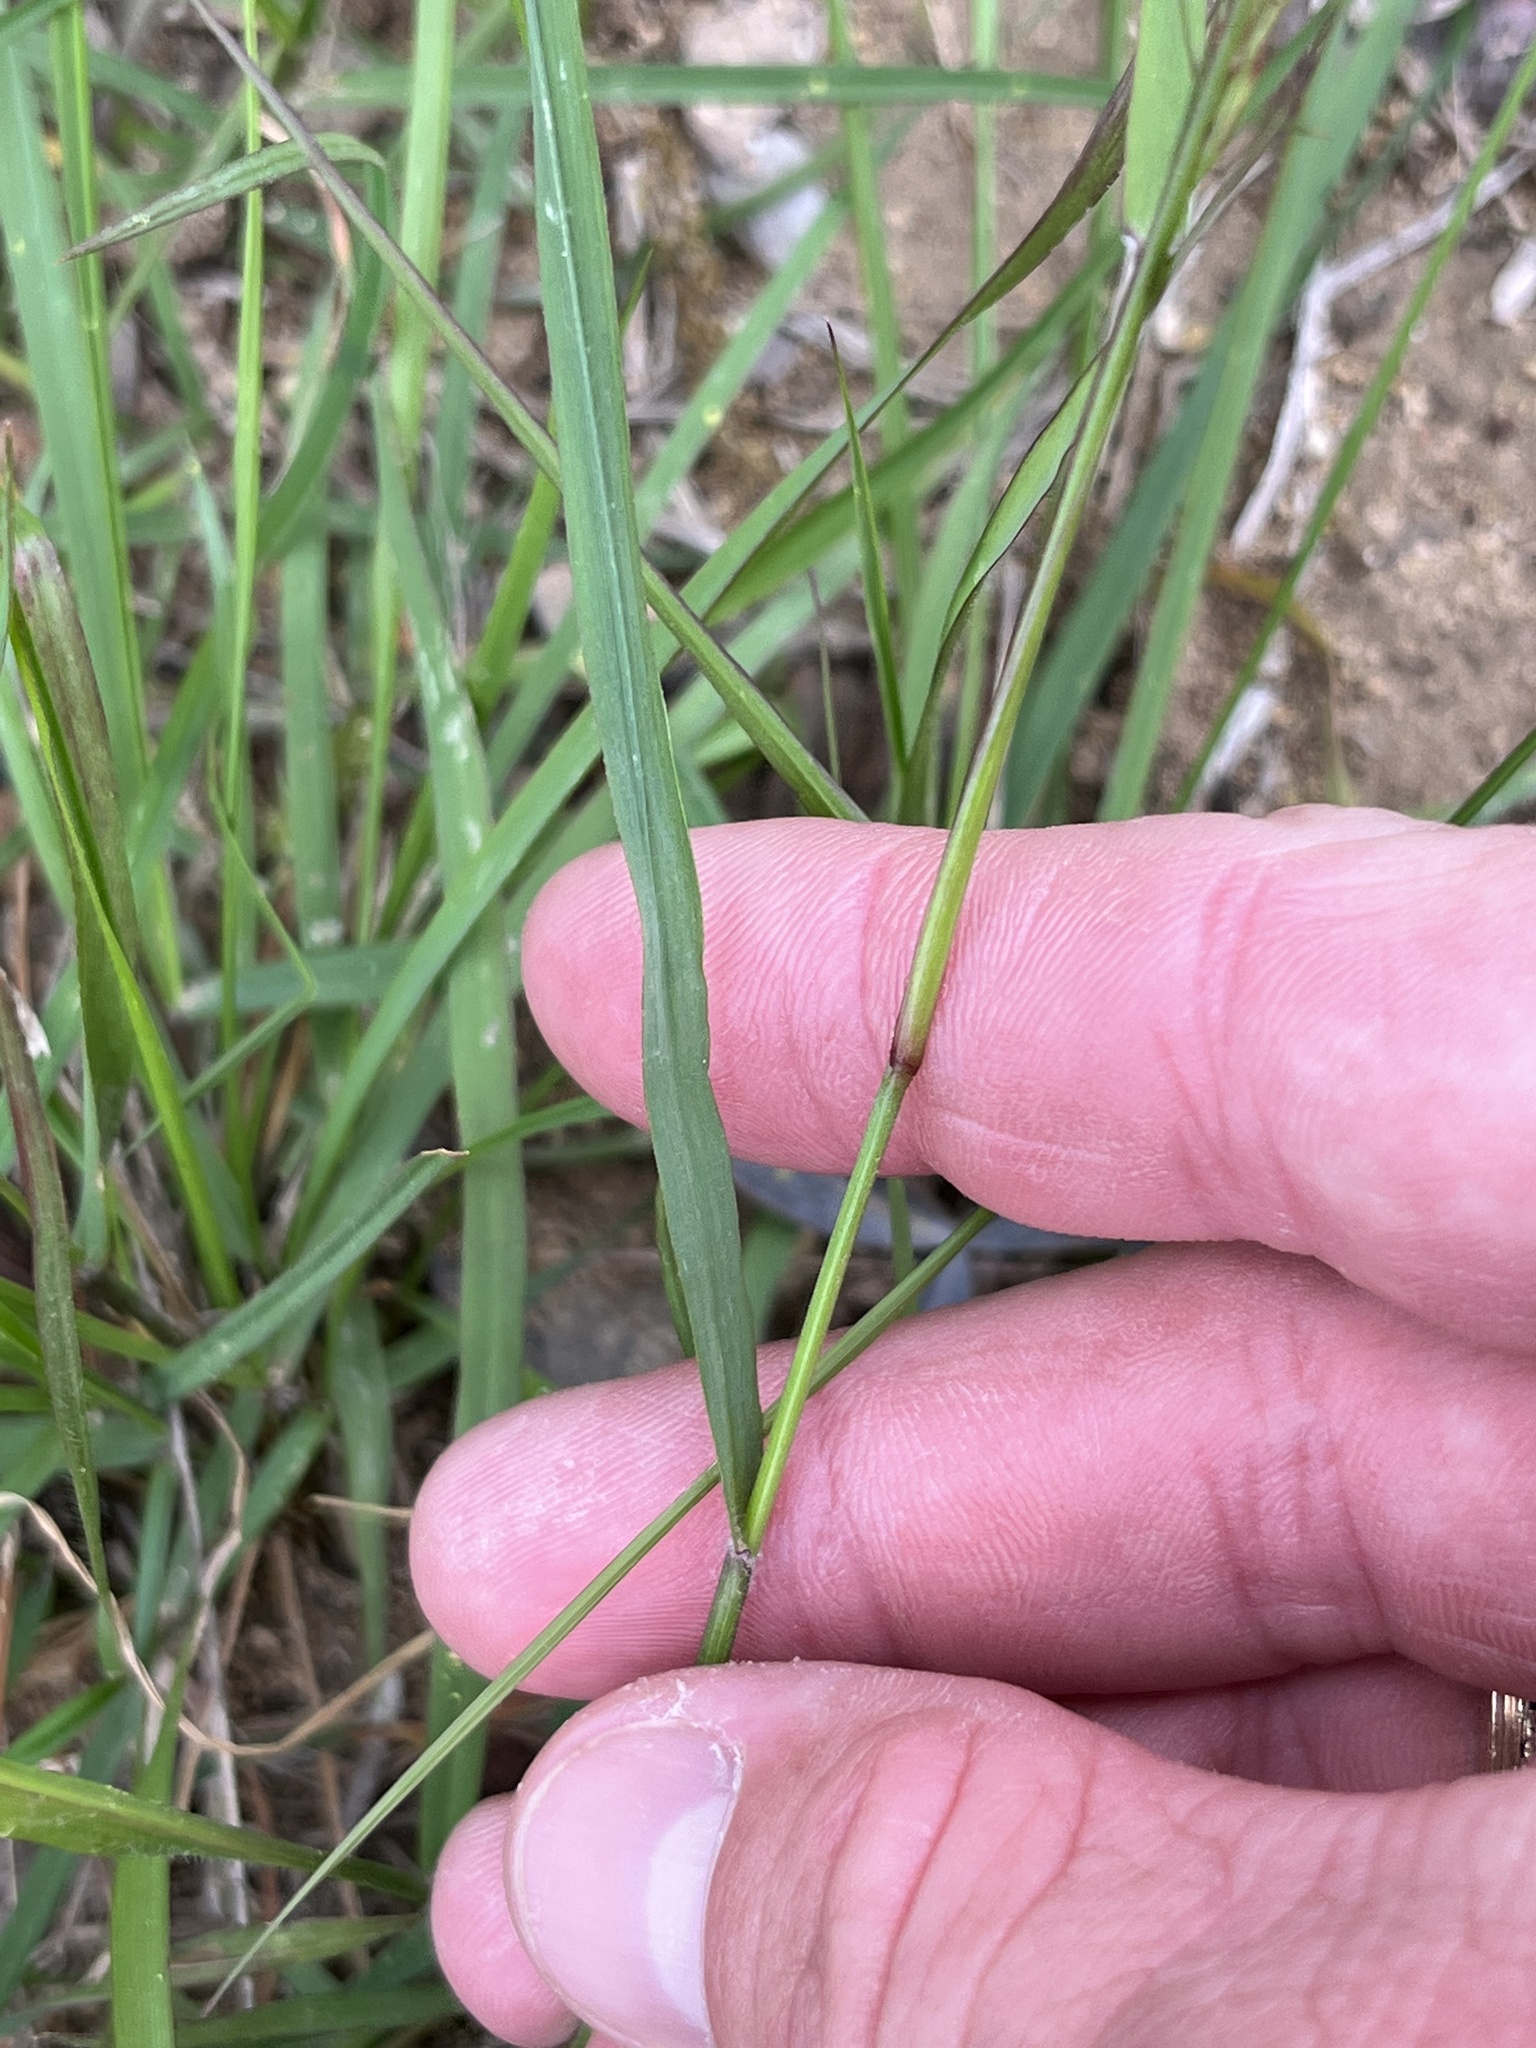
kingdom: Plantae
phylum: Tracheophyta
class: Liliopsida
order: Poales
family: Poaceae
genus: Tridens
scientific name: Tridens texanus
